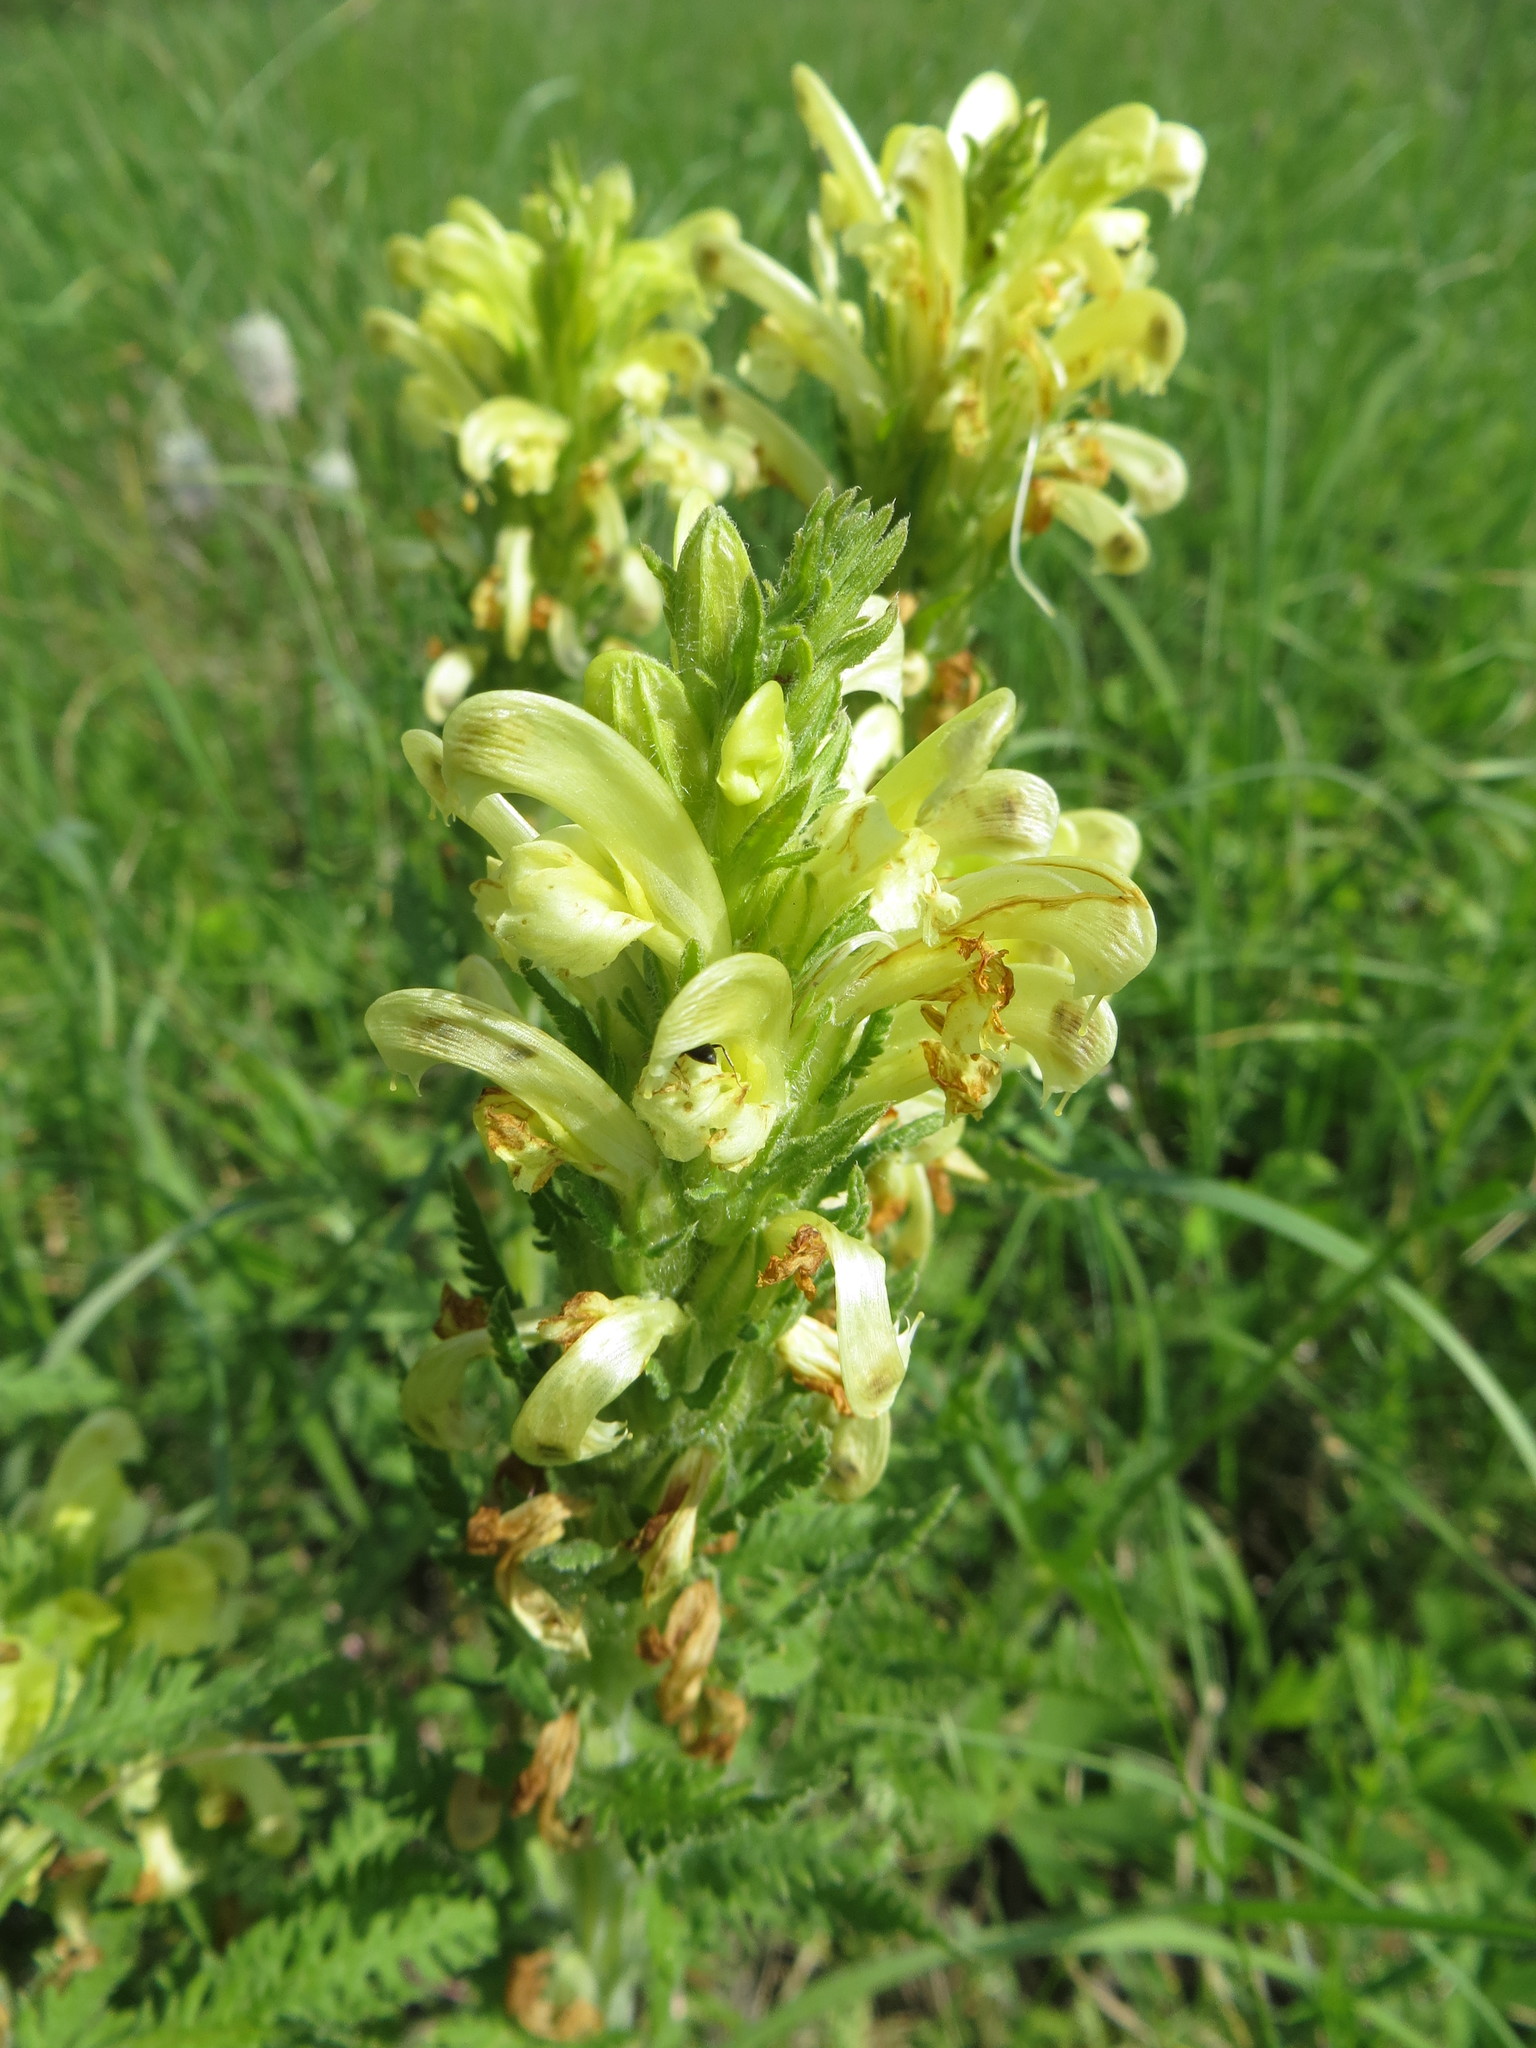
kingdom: Plantae
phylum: Tracheophyta
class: Magnoliopsida
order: Lamiales
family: Orobanchaceae
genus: Pedicularis
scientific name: Pedicularis kaufmannii
